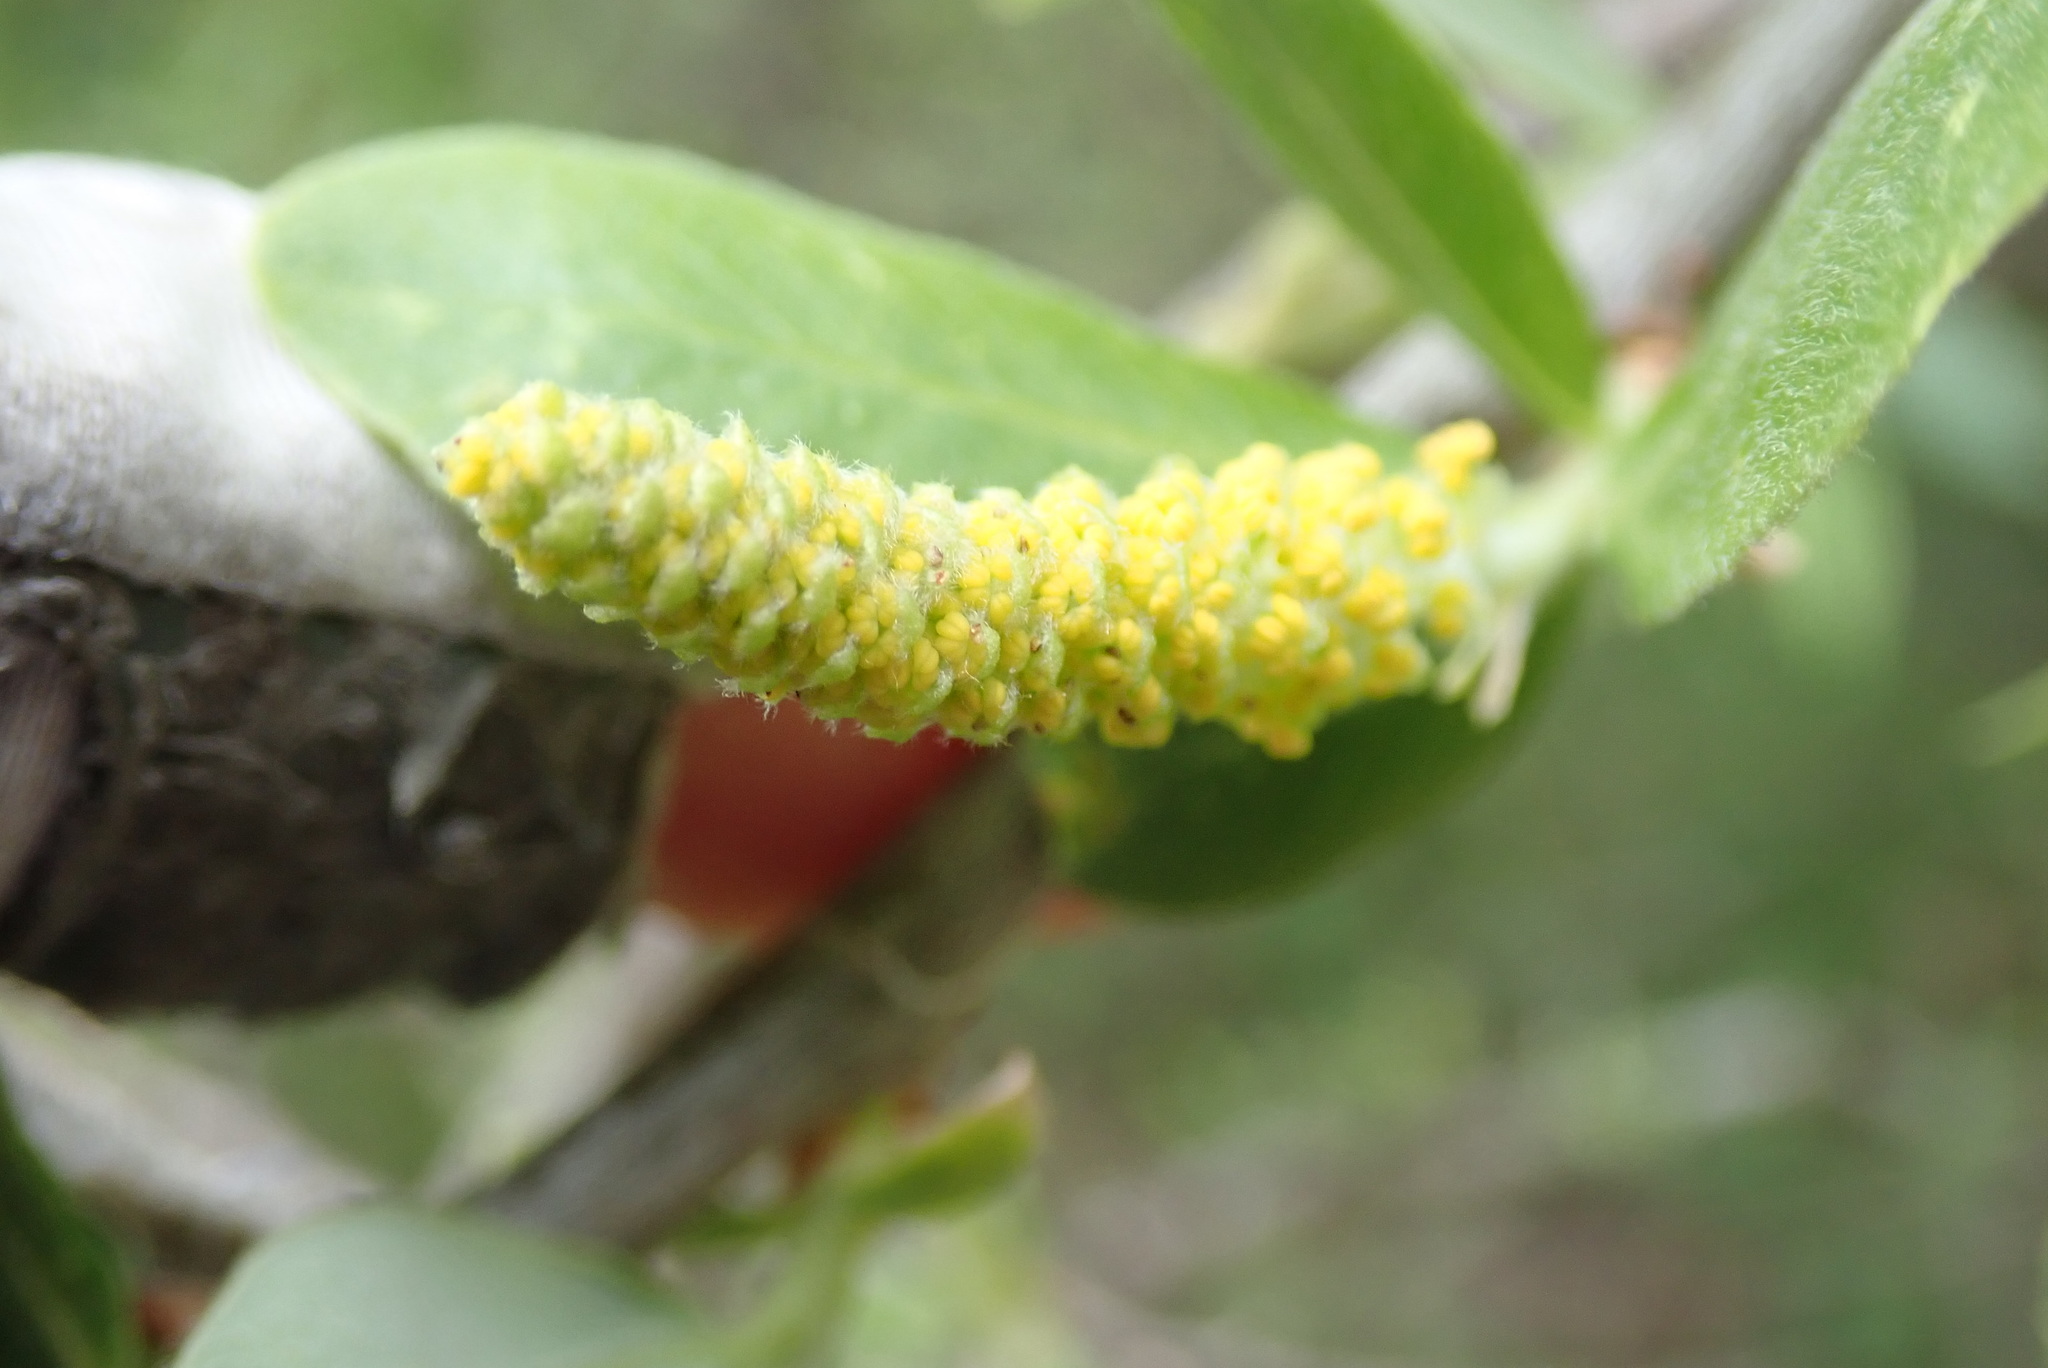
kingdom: Plantae
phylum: Tracheophyta
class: Magnoliopsida
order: Malpighiales
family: Salicaceae
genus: Salix
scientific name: Salix laevigata
